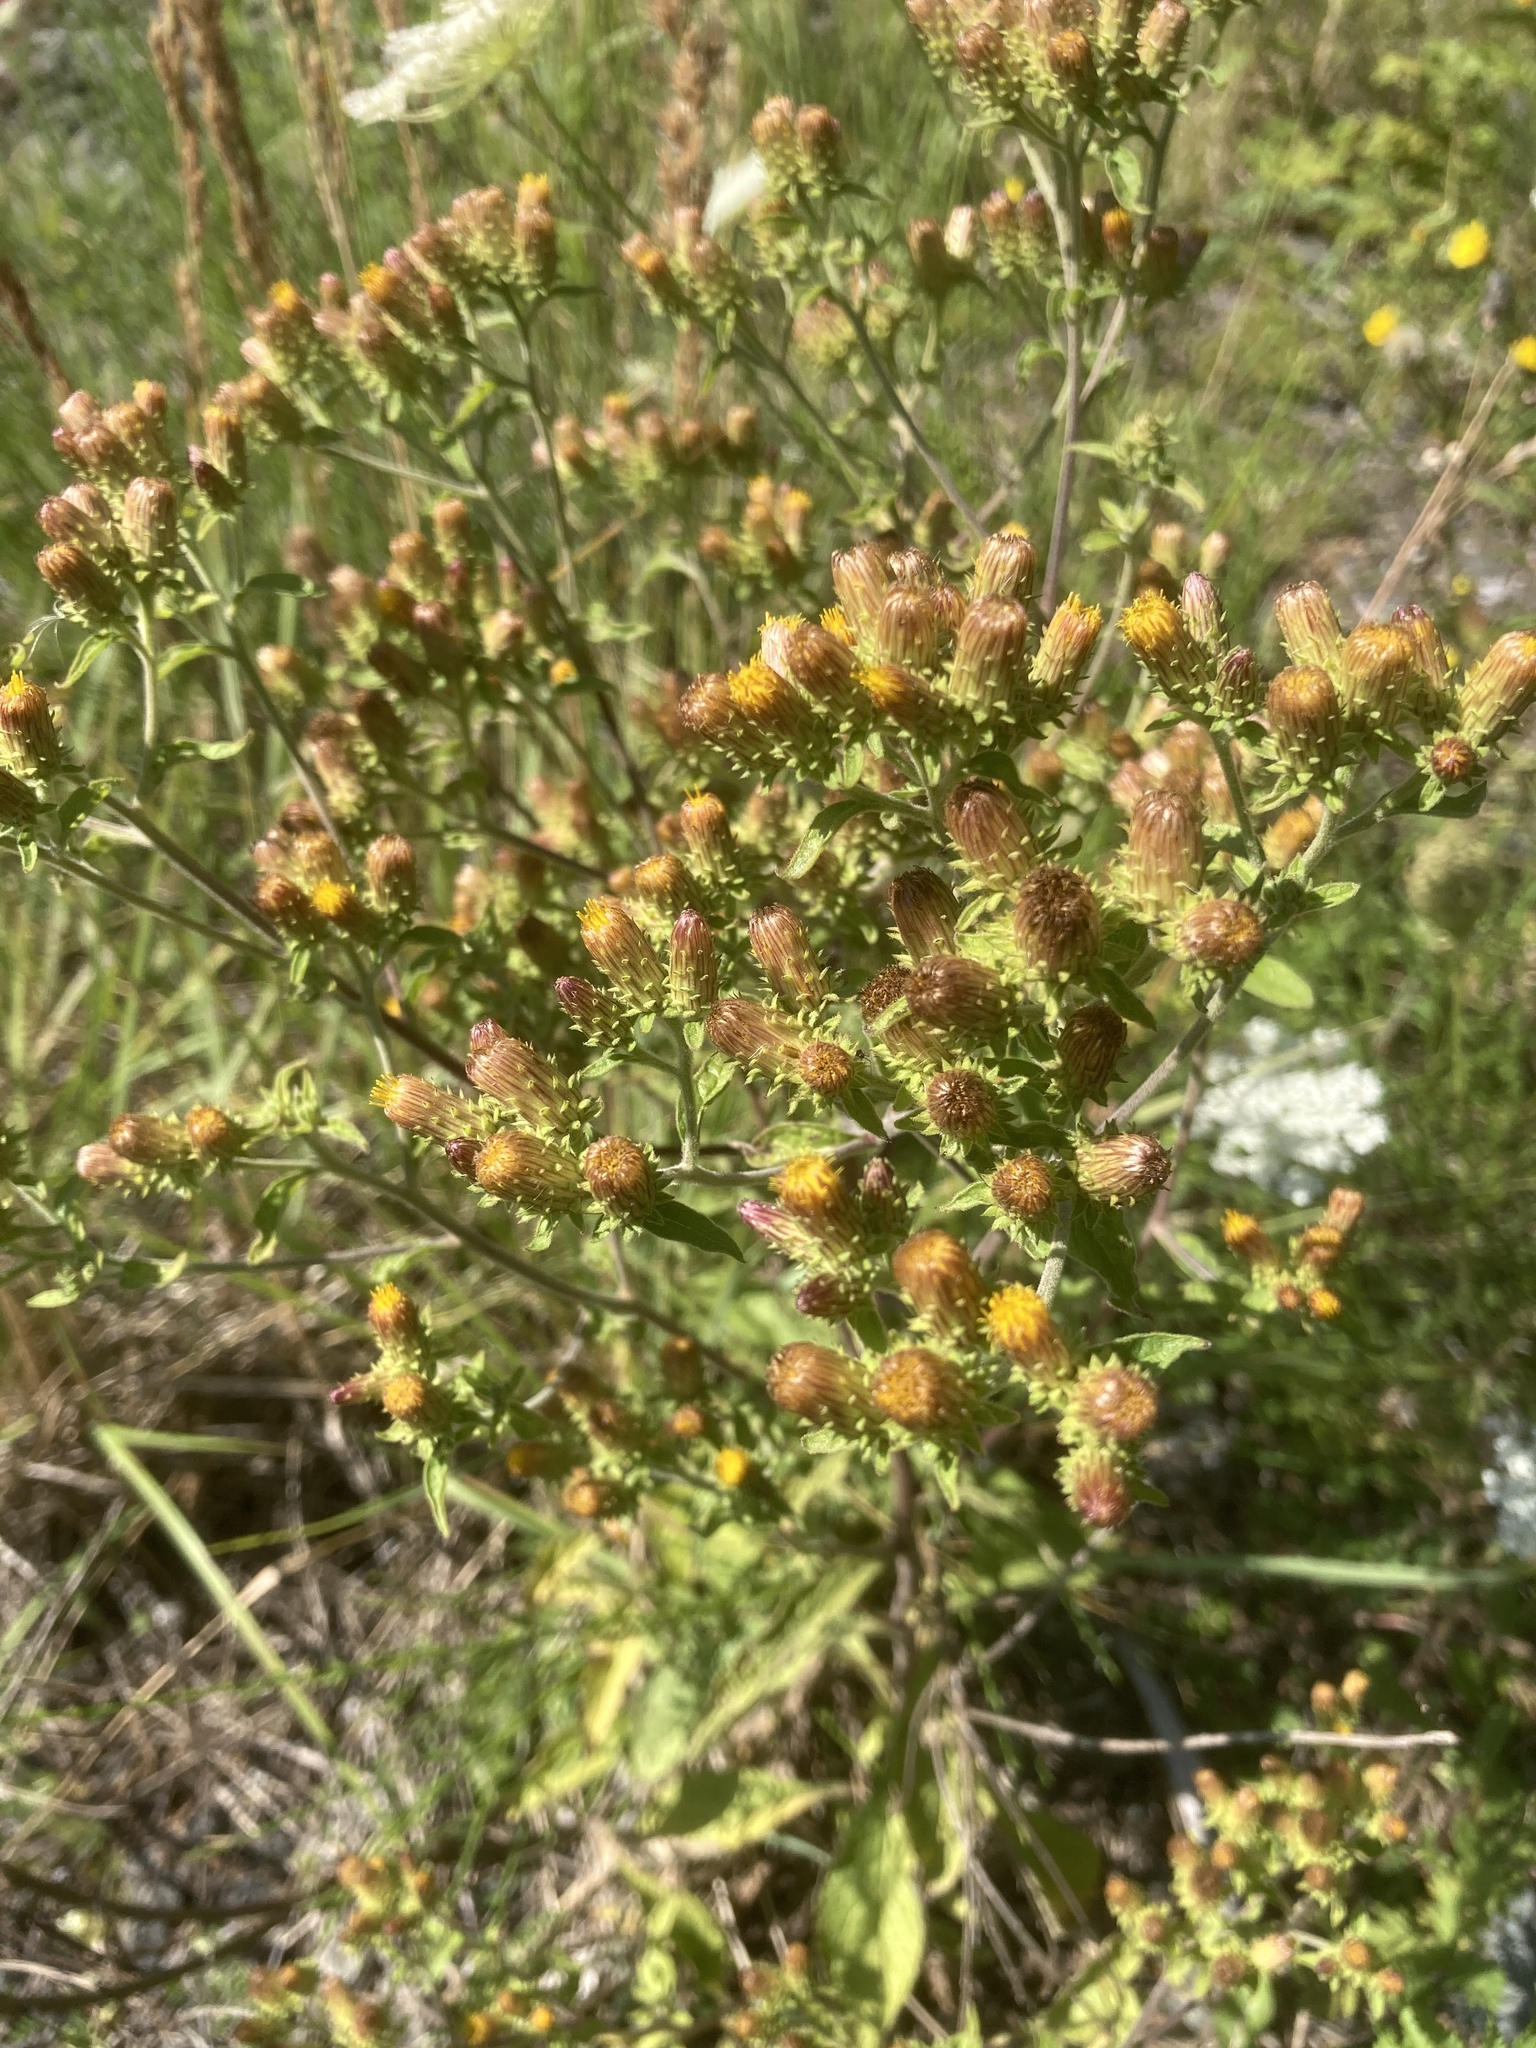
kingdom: Plantae
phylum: Tracheophyta
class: Magnoliopsida
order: Asterales
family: Asteraceae
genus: Pentanema
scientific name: Pentanema squarrosum
